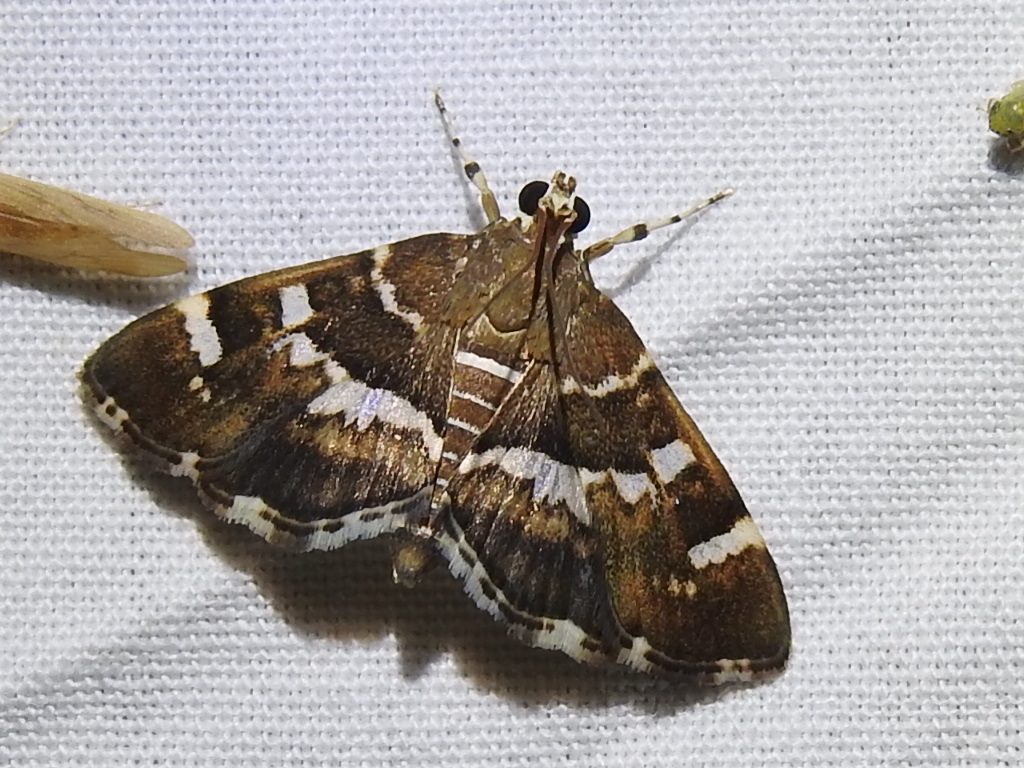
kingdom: Animalia
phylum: Arthropoda
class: Insecta
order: Lepidoptera
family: Crambidae
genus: Hymenia
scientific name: Hymenia perspectalis
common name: Spotted beet webworm
